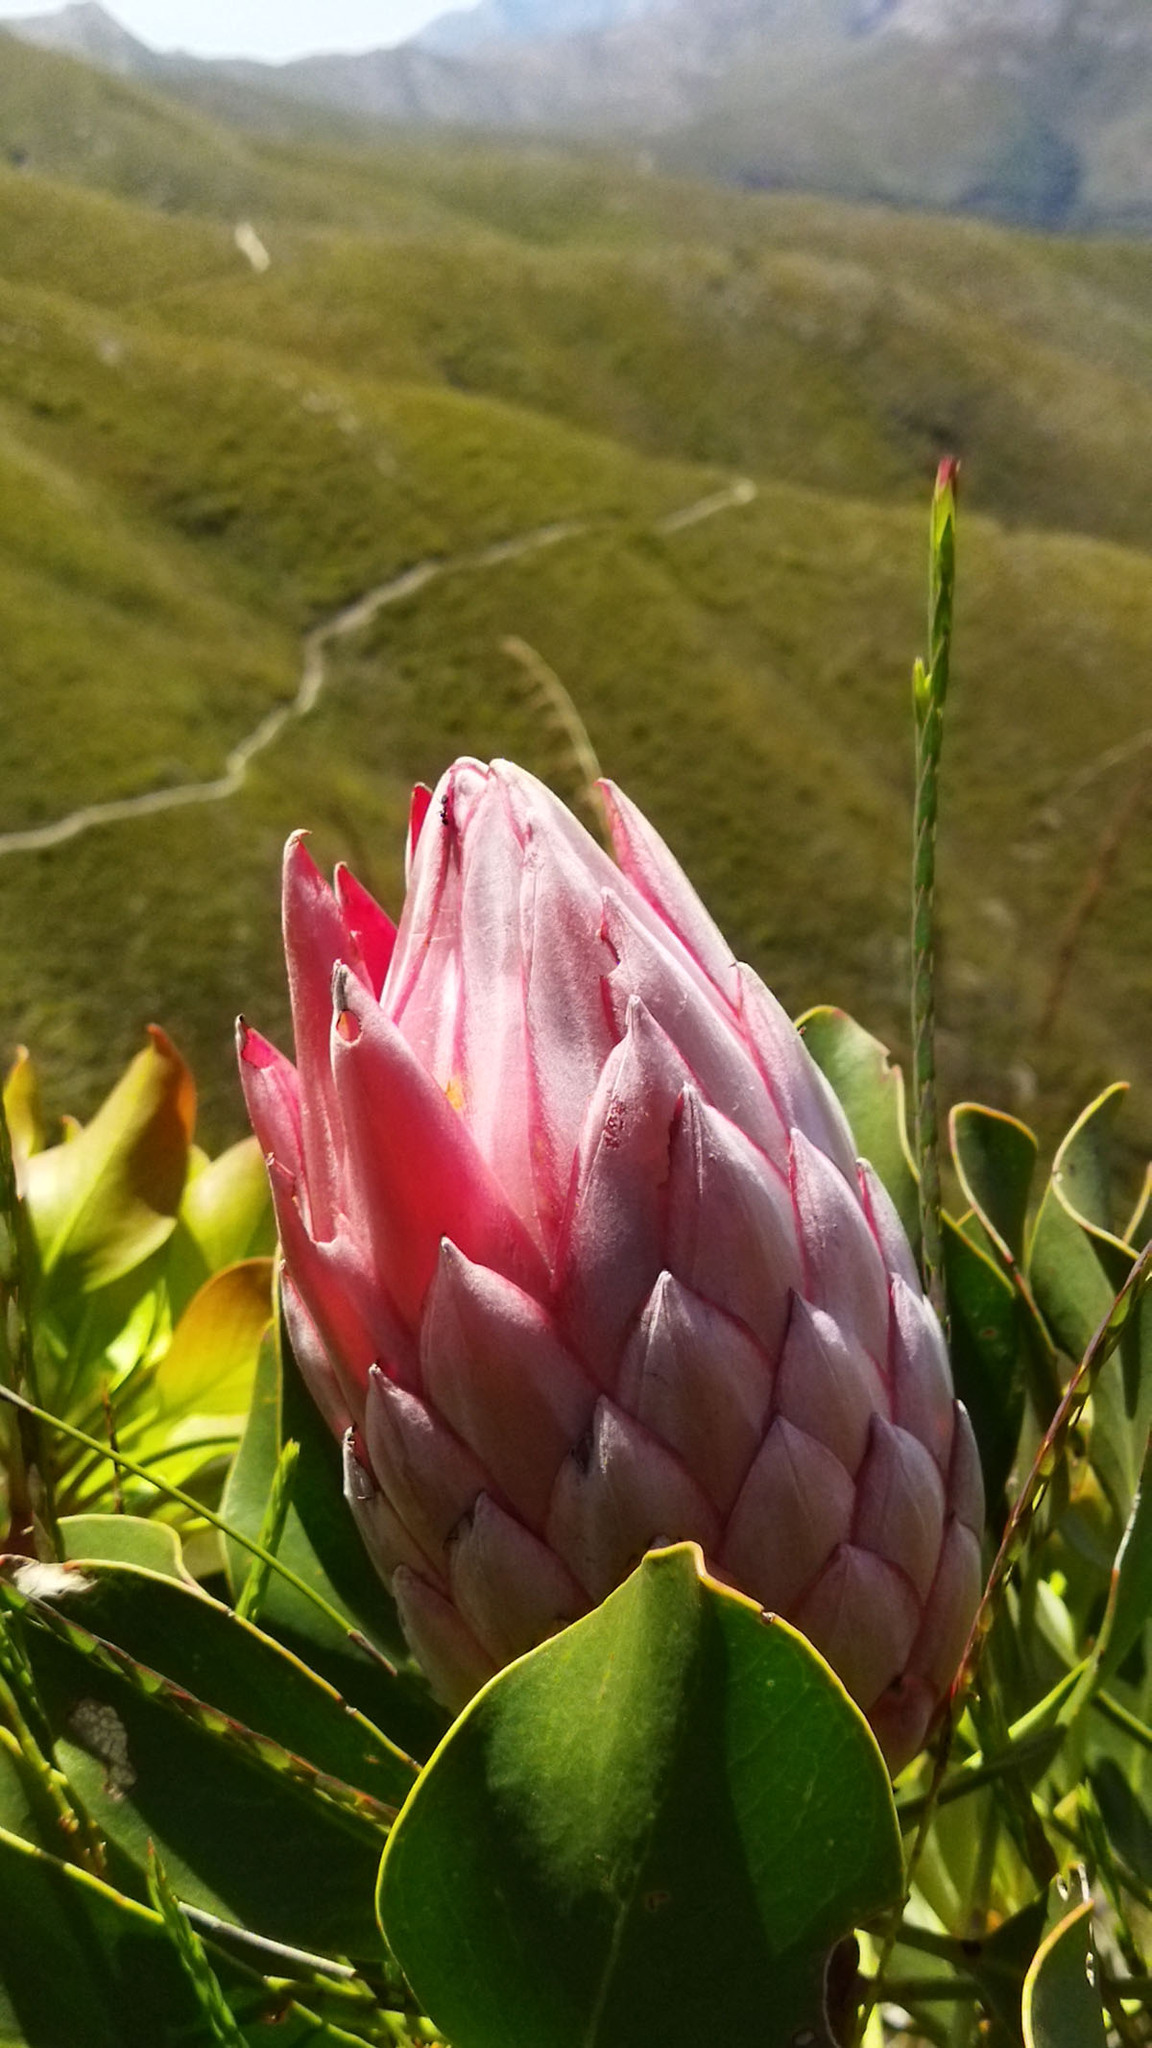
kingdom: Plantae
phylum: Tracheophyta
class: Magnoliopsida
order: Proteales
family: Proteaceae
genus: Protea
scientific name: Protea cynaroides
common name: King protea
